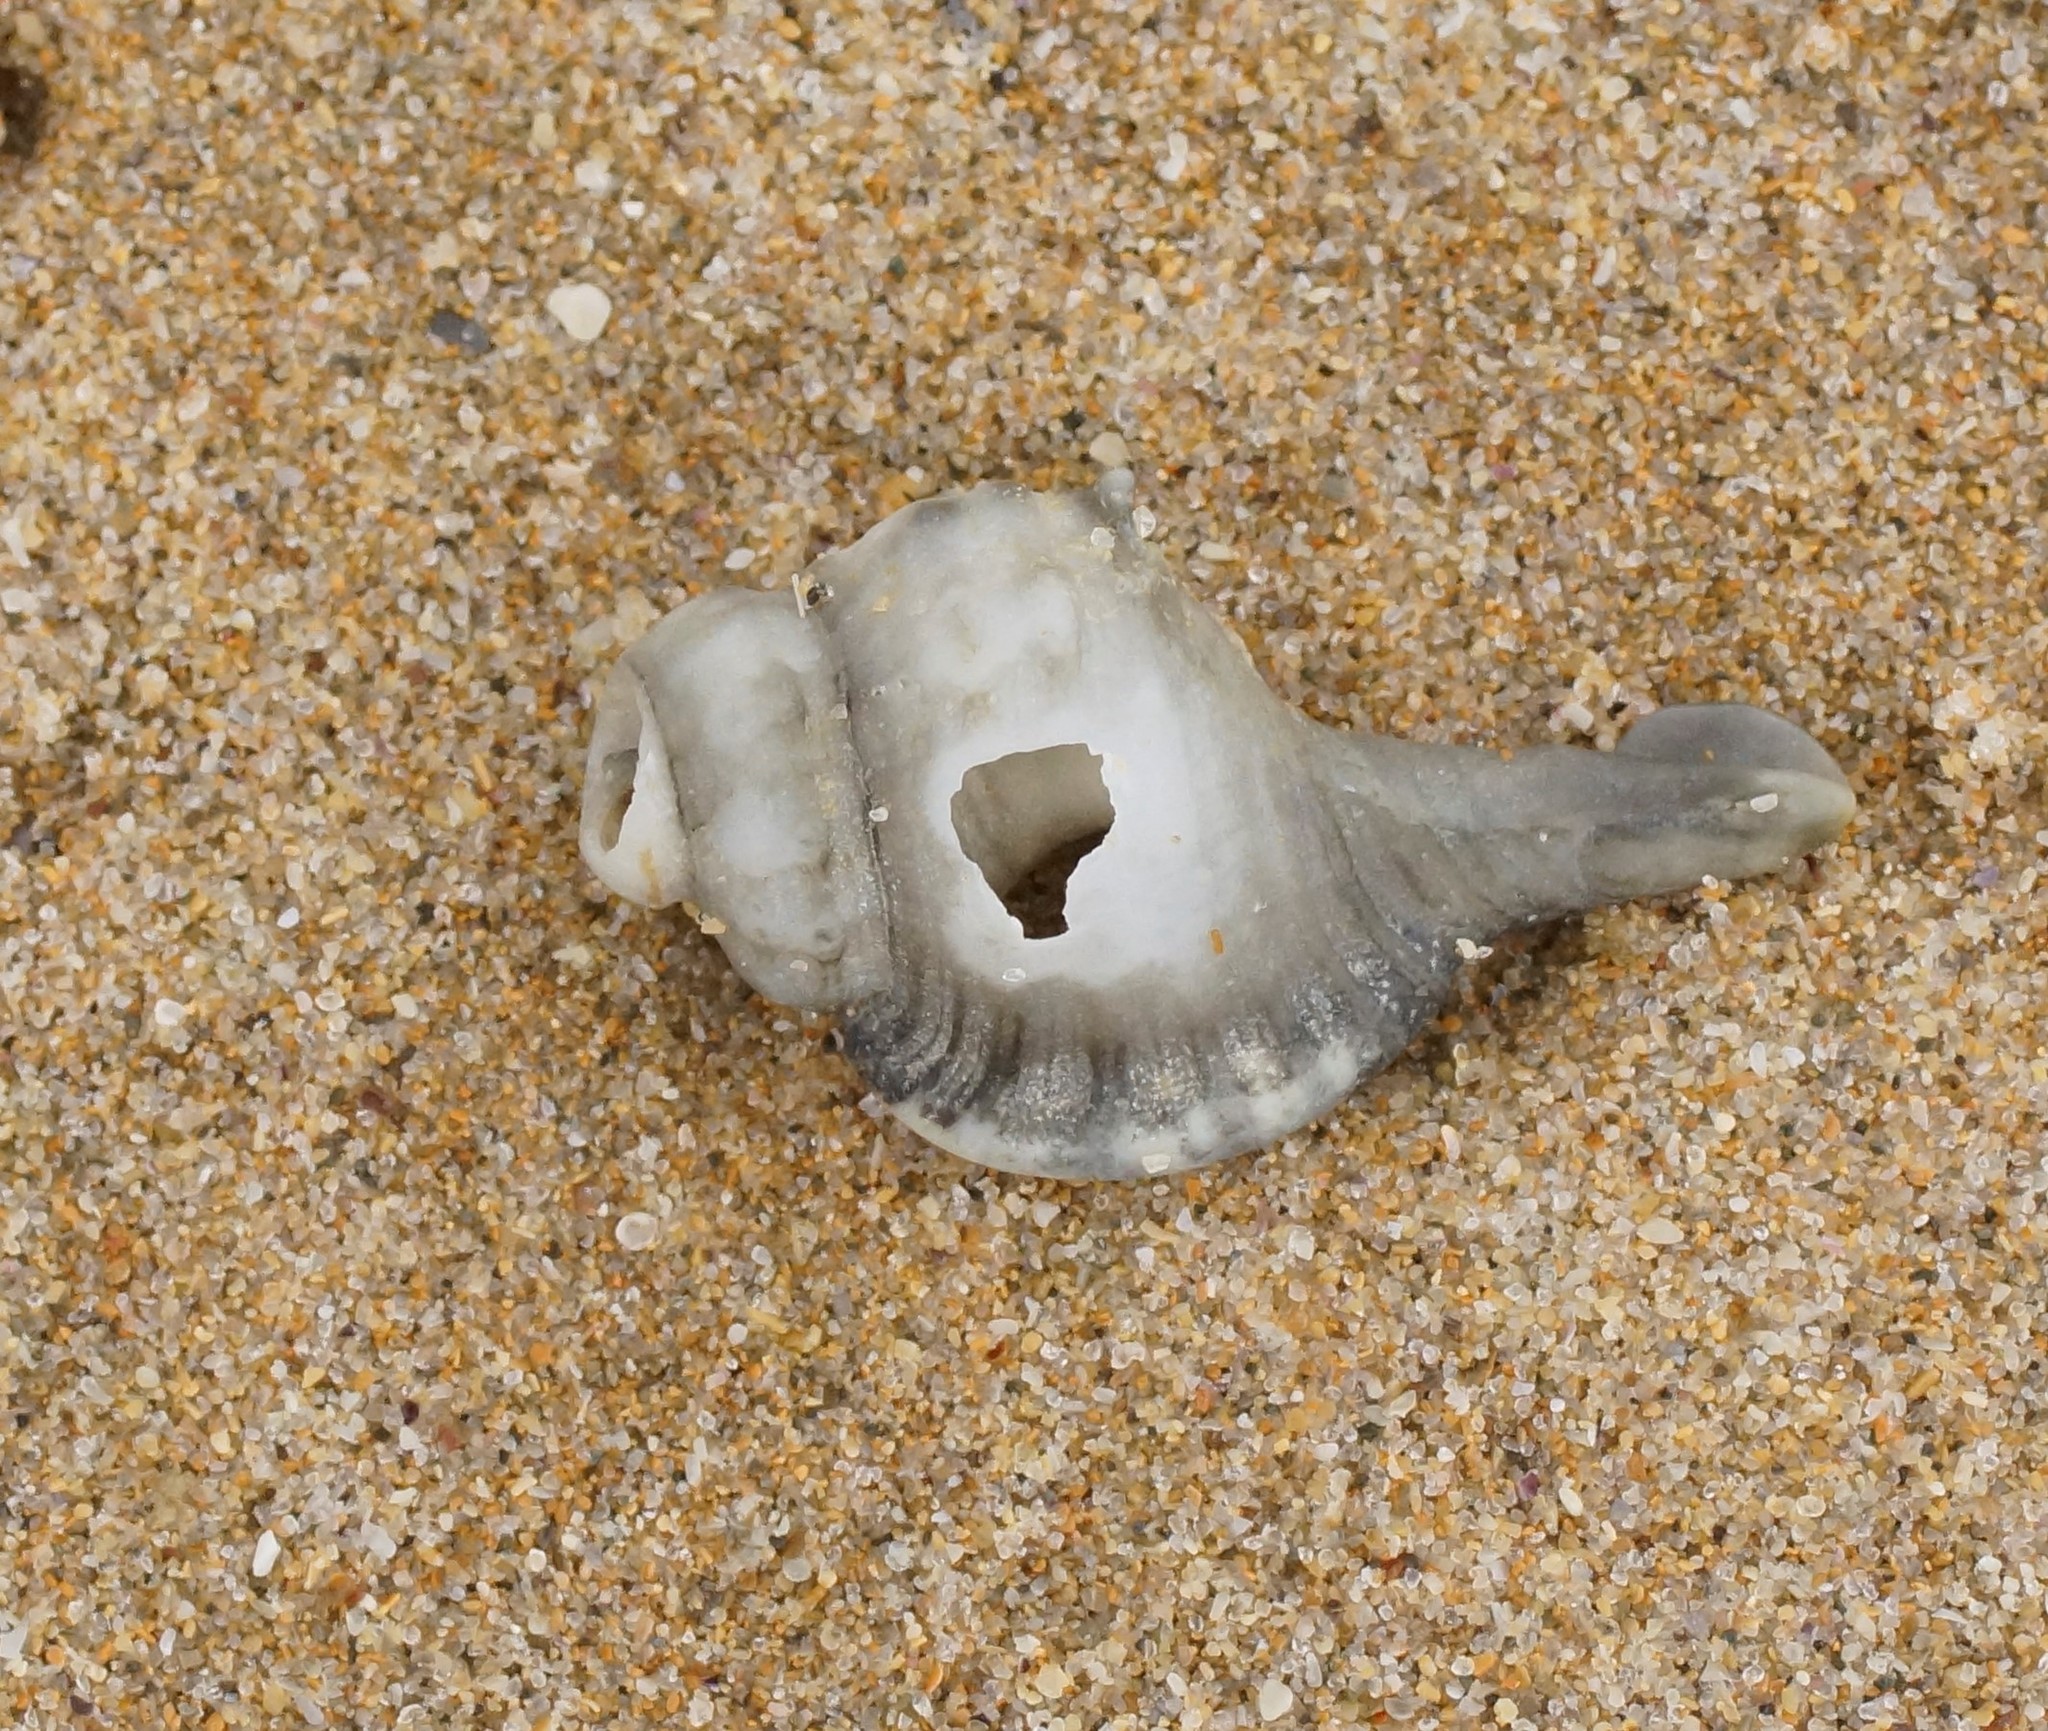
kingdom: Animalia
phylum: Mollusca
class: Gastropoda
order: Littorinimorpha
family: Cymatiidae
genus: Cabestana
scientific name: Cabestana tabulata
